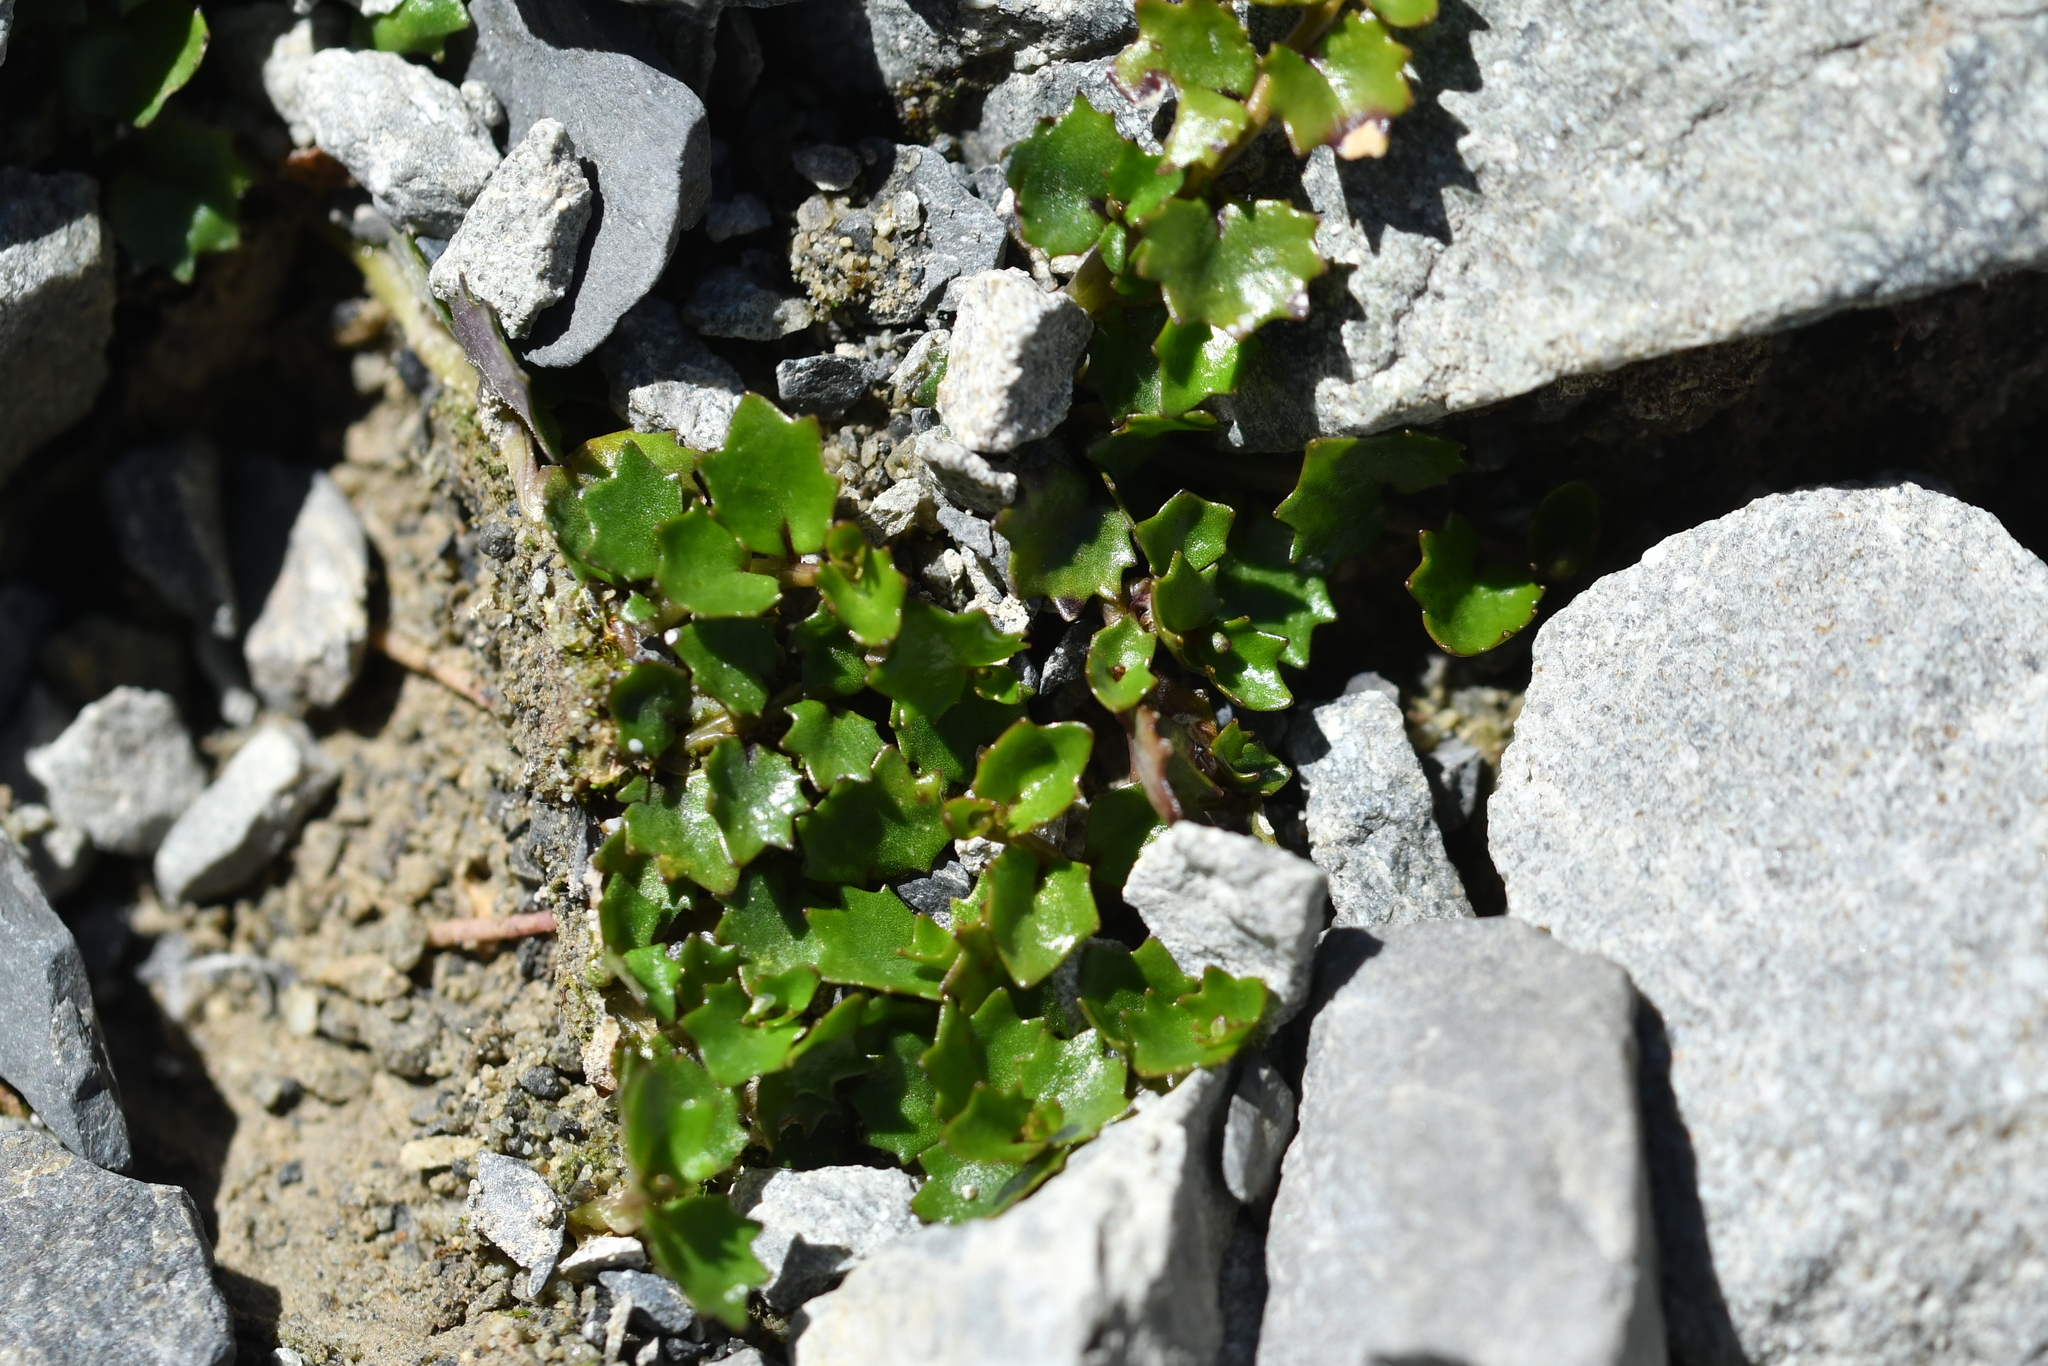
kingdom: Plantae
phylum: Tracheophyta
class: Magnoliopsida
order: Asterales
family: Campanulaceae
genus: Lobelia
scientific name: Lobelia macrodon
